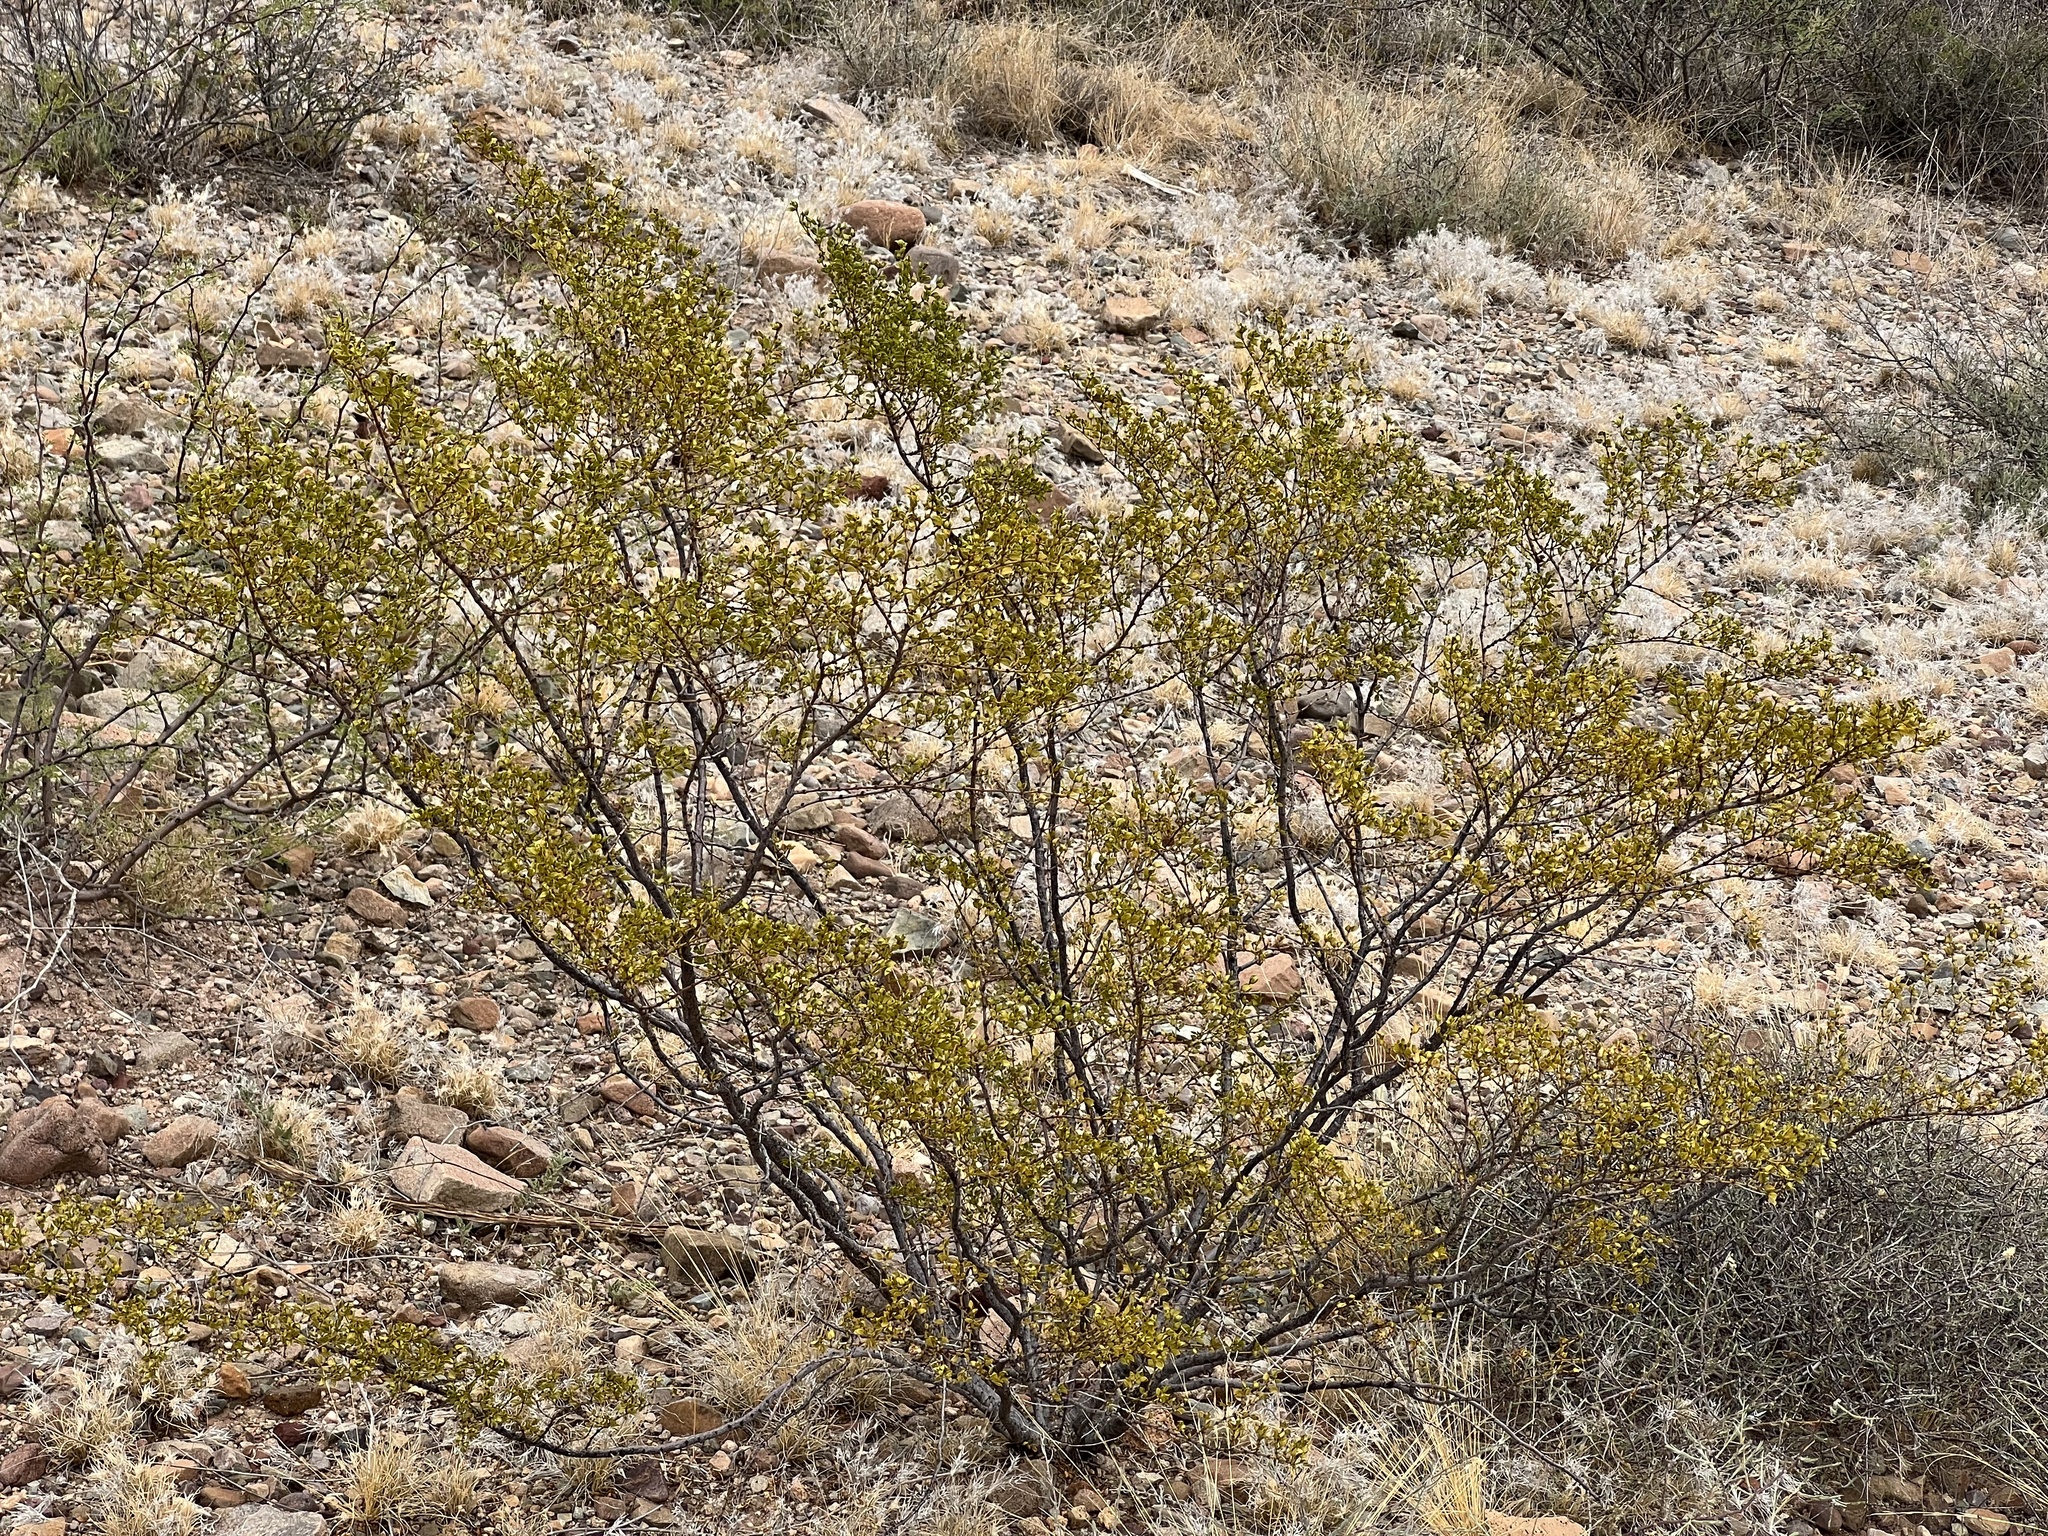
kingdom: Plantae
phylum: Tracheophyta
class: Magnoliopsida
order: Zygophyllales
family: Zygophyllaceae
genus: Larrea
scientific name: Larrea tridentata
